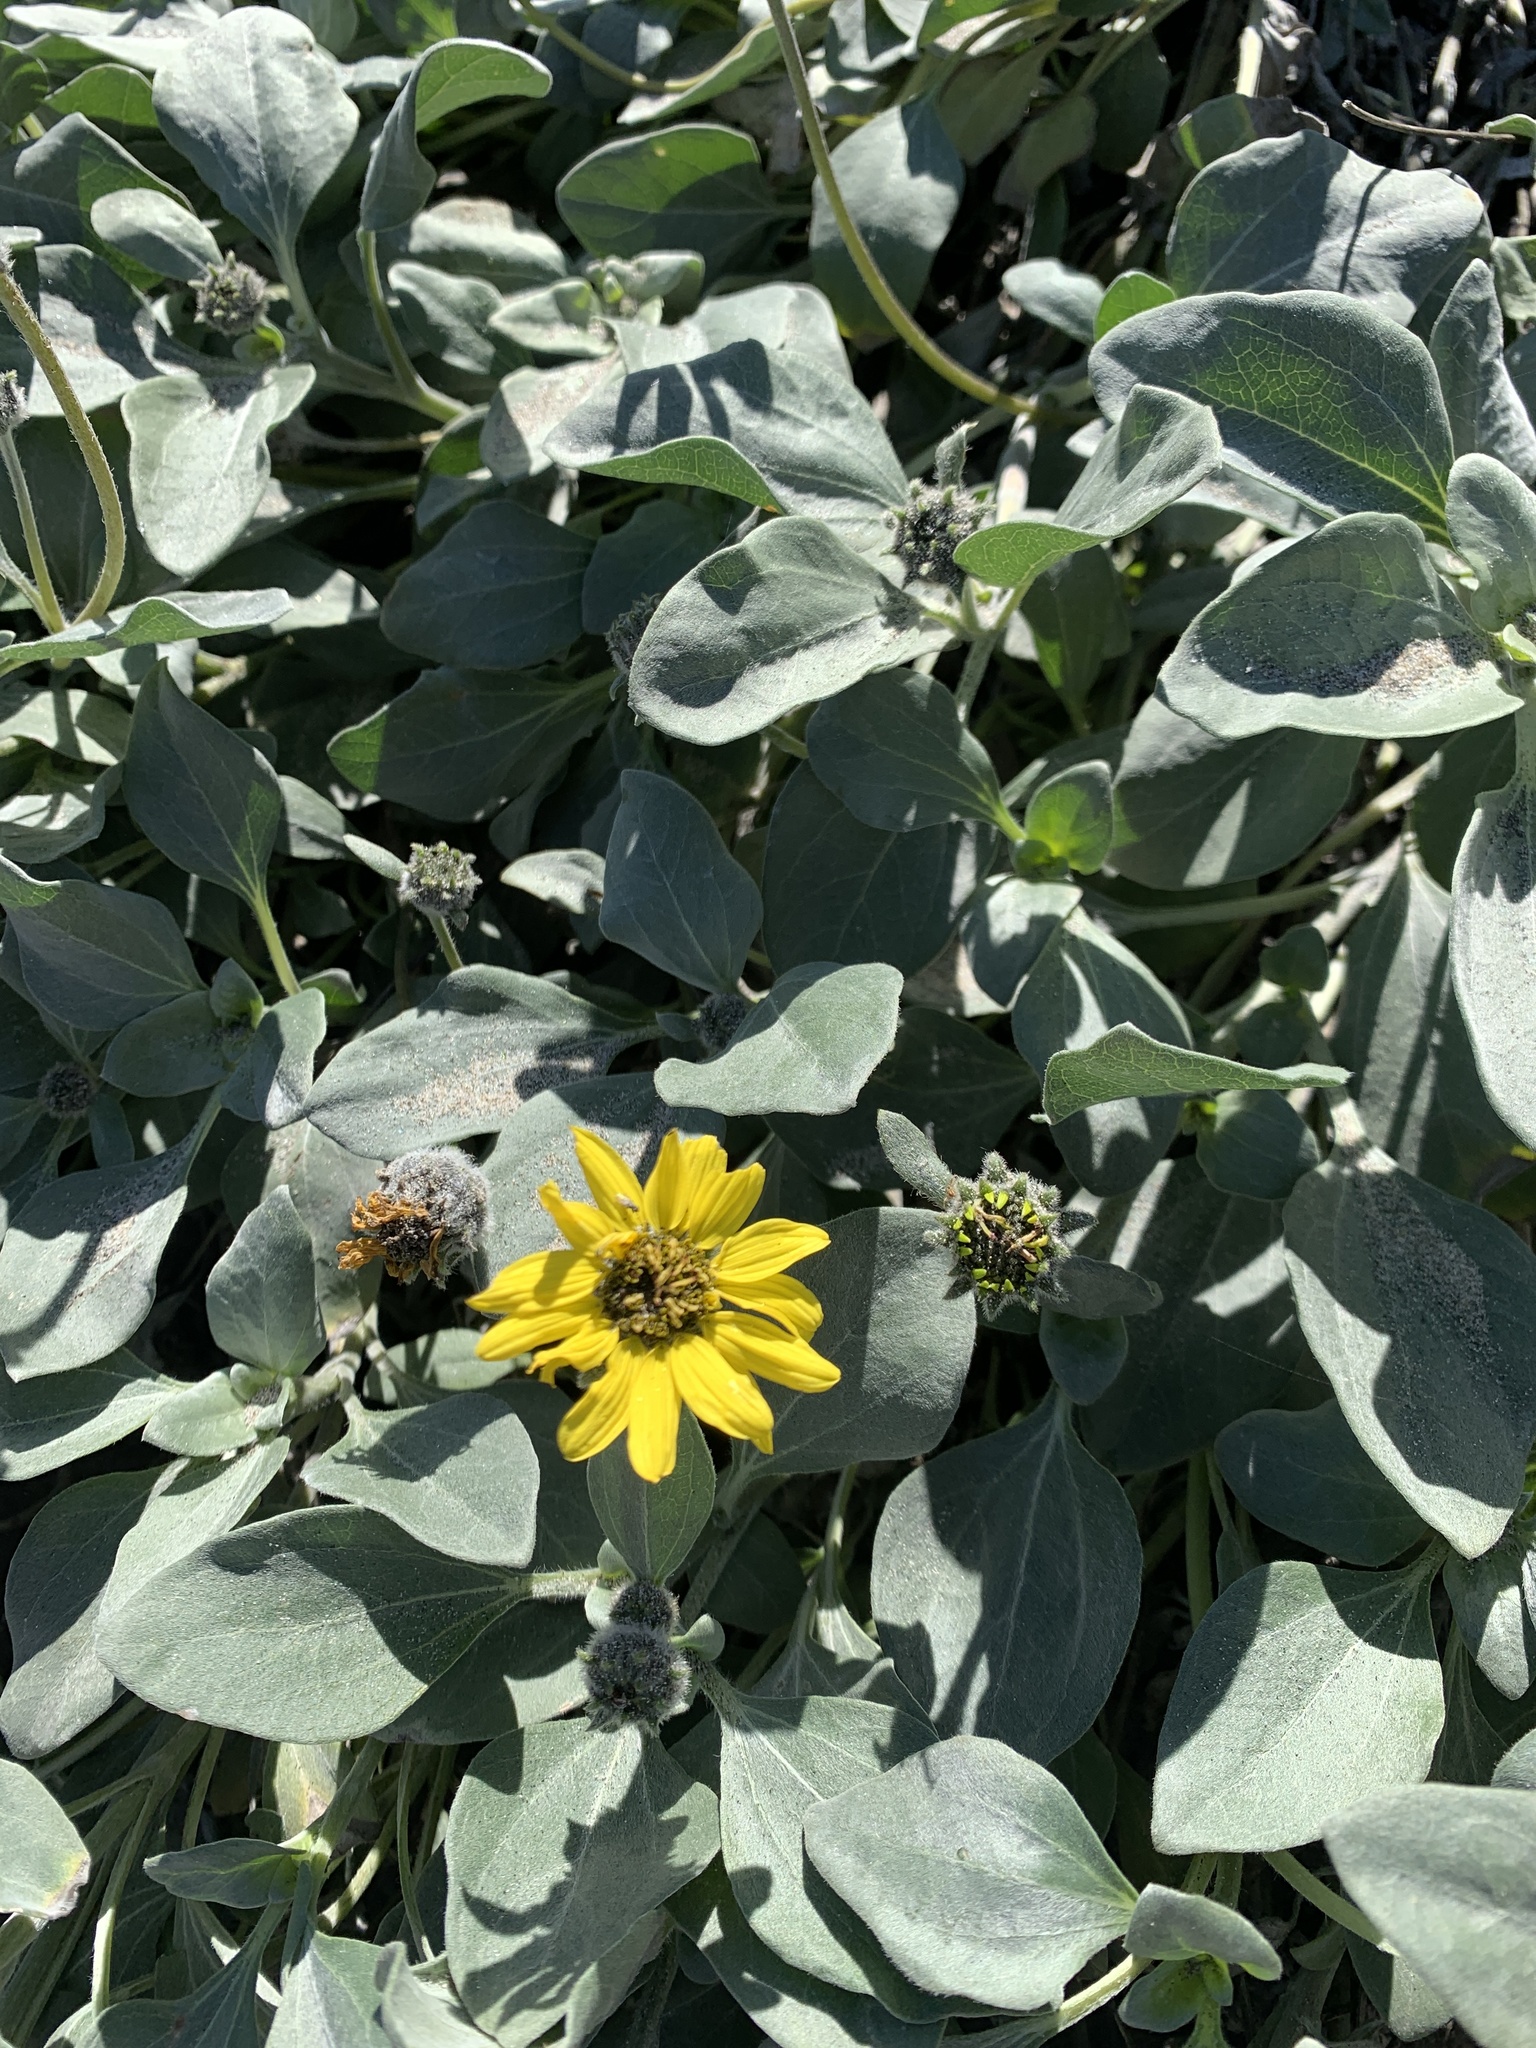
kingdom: Plantae
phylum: Tracheophyta
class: Magnoliopsida
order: Asterales
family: Asteraceae
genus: Helianthus
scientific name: Helianthus niveus
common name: Snowy sunflower
